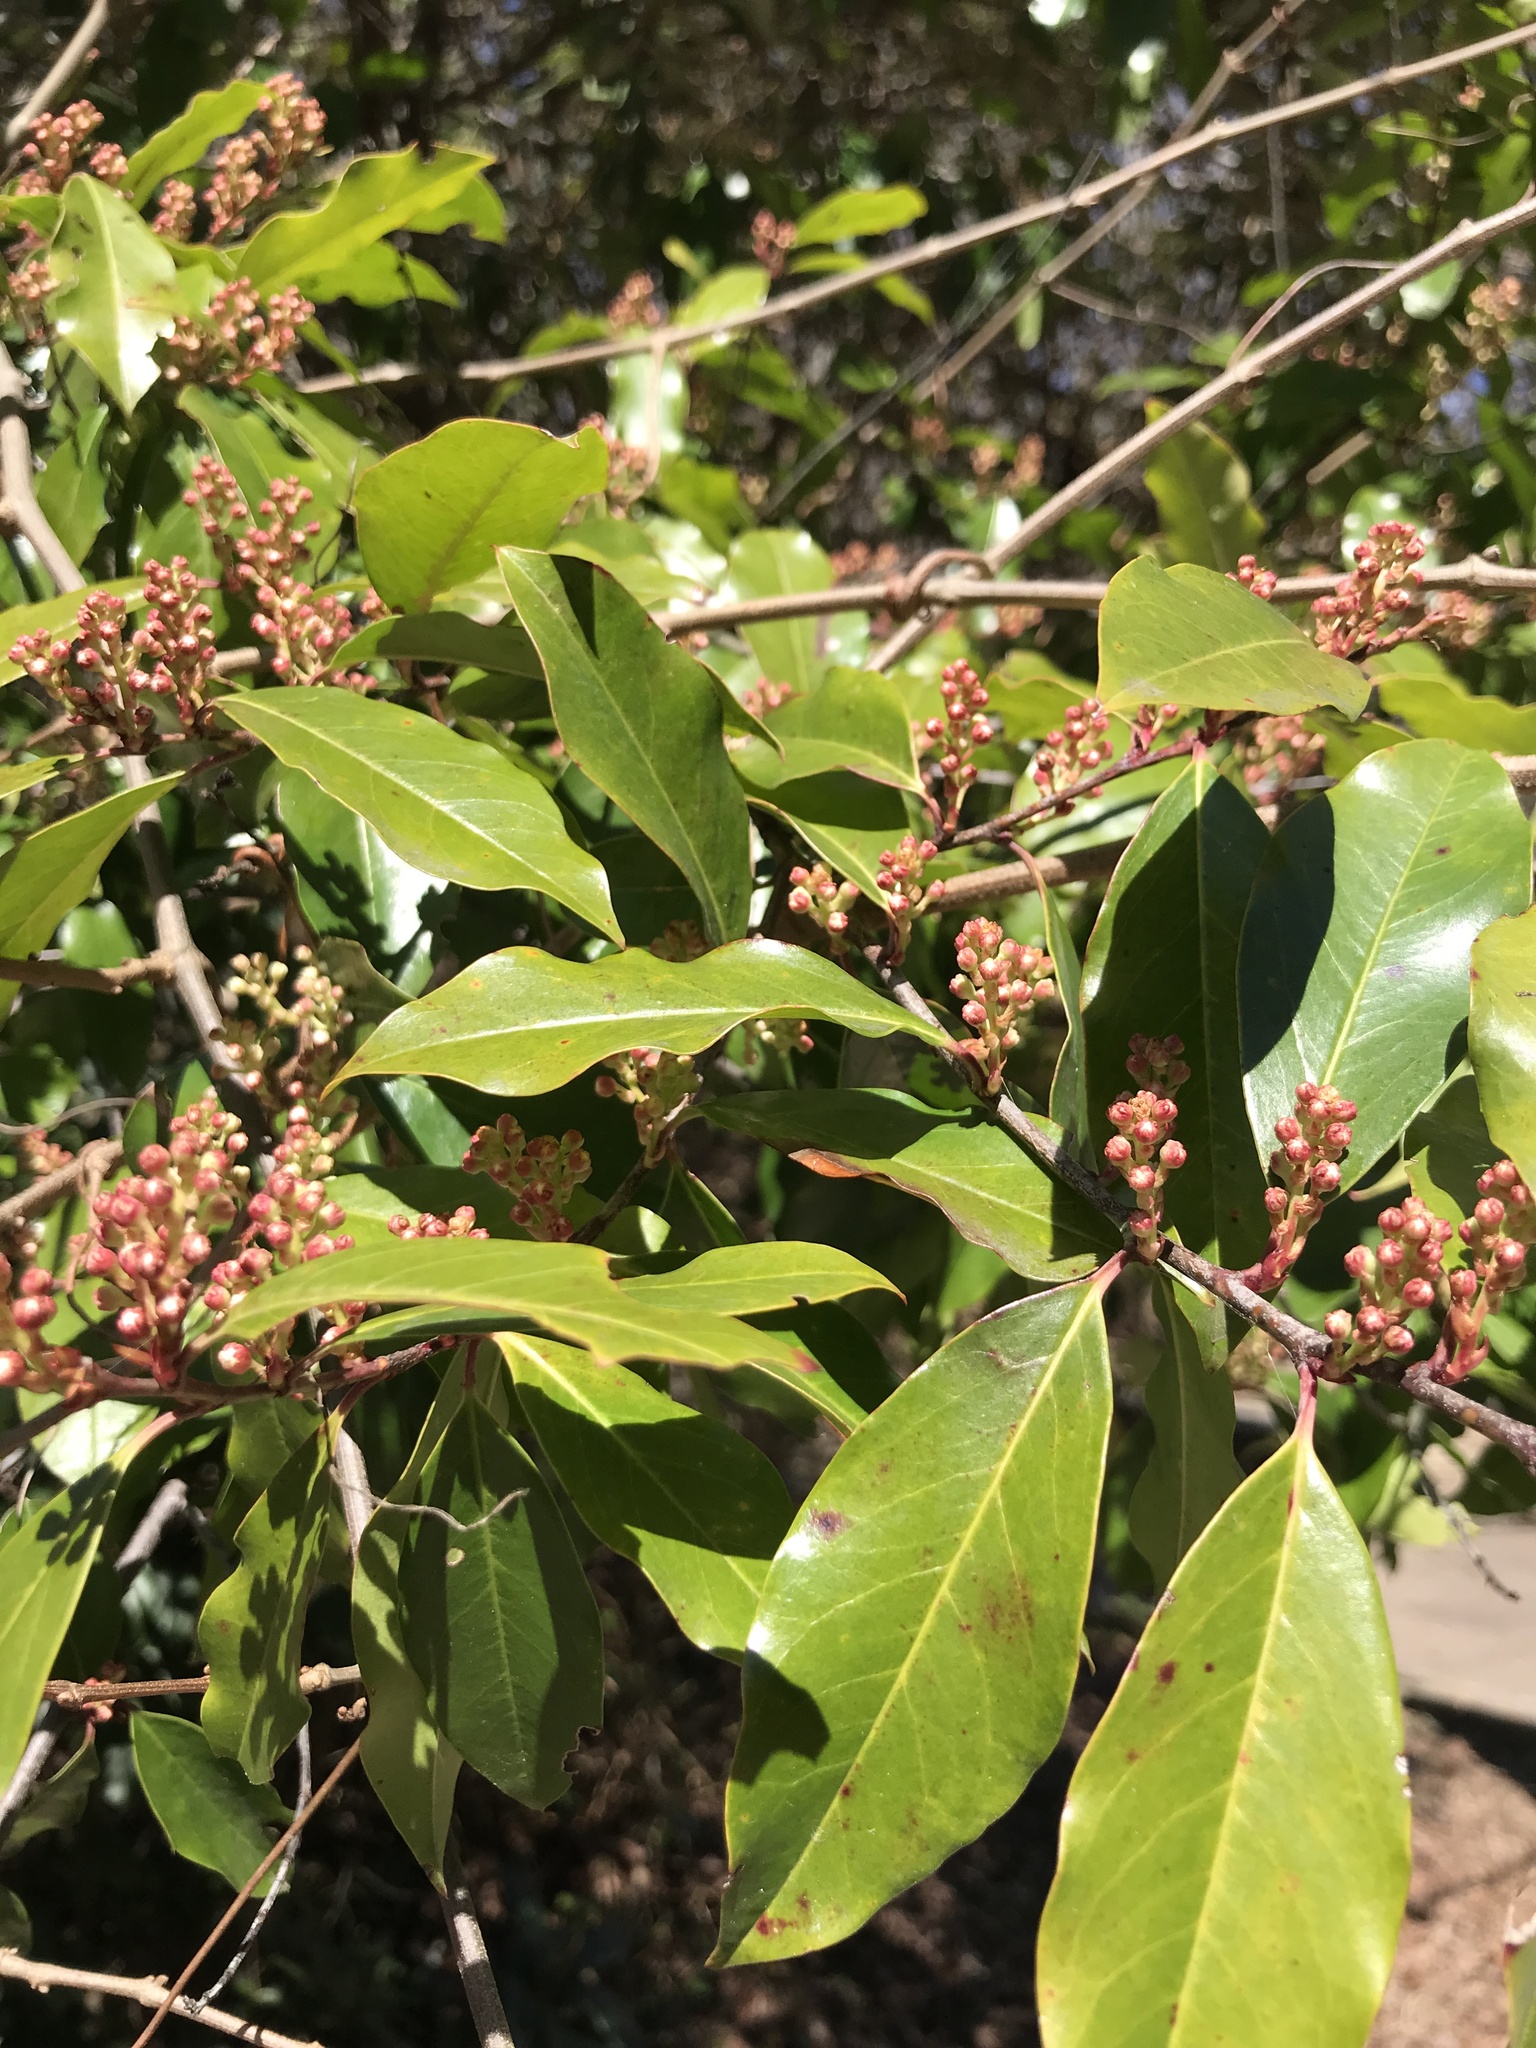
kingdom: Plantae
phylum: Tracheophyta
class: Magnoliopsida
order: Rosales
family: Rosaceae
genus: Prunus
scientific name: Prunus caroliniana
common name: Carolina laurel cherry
